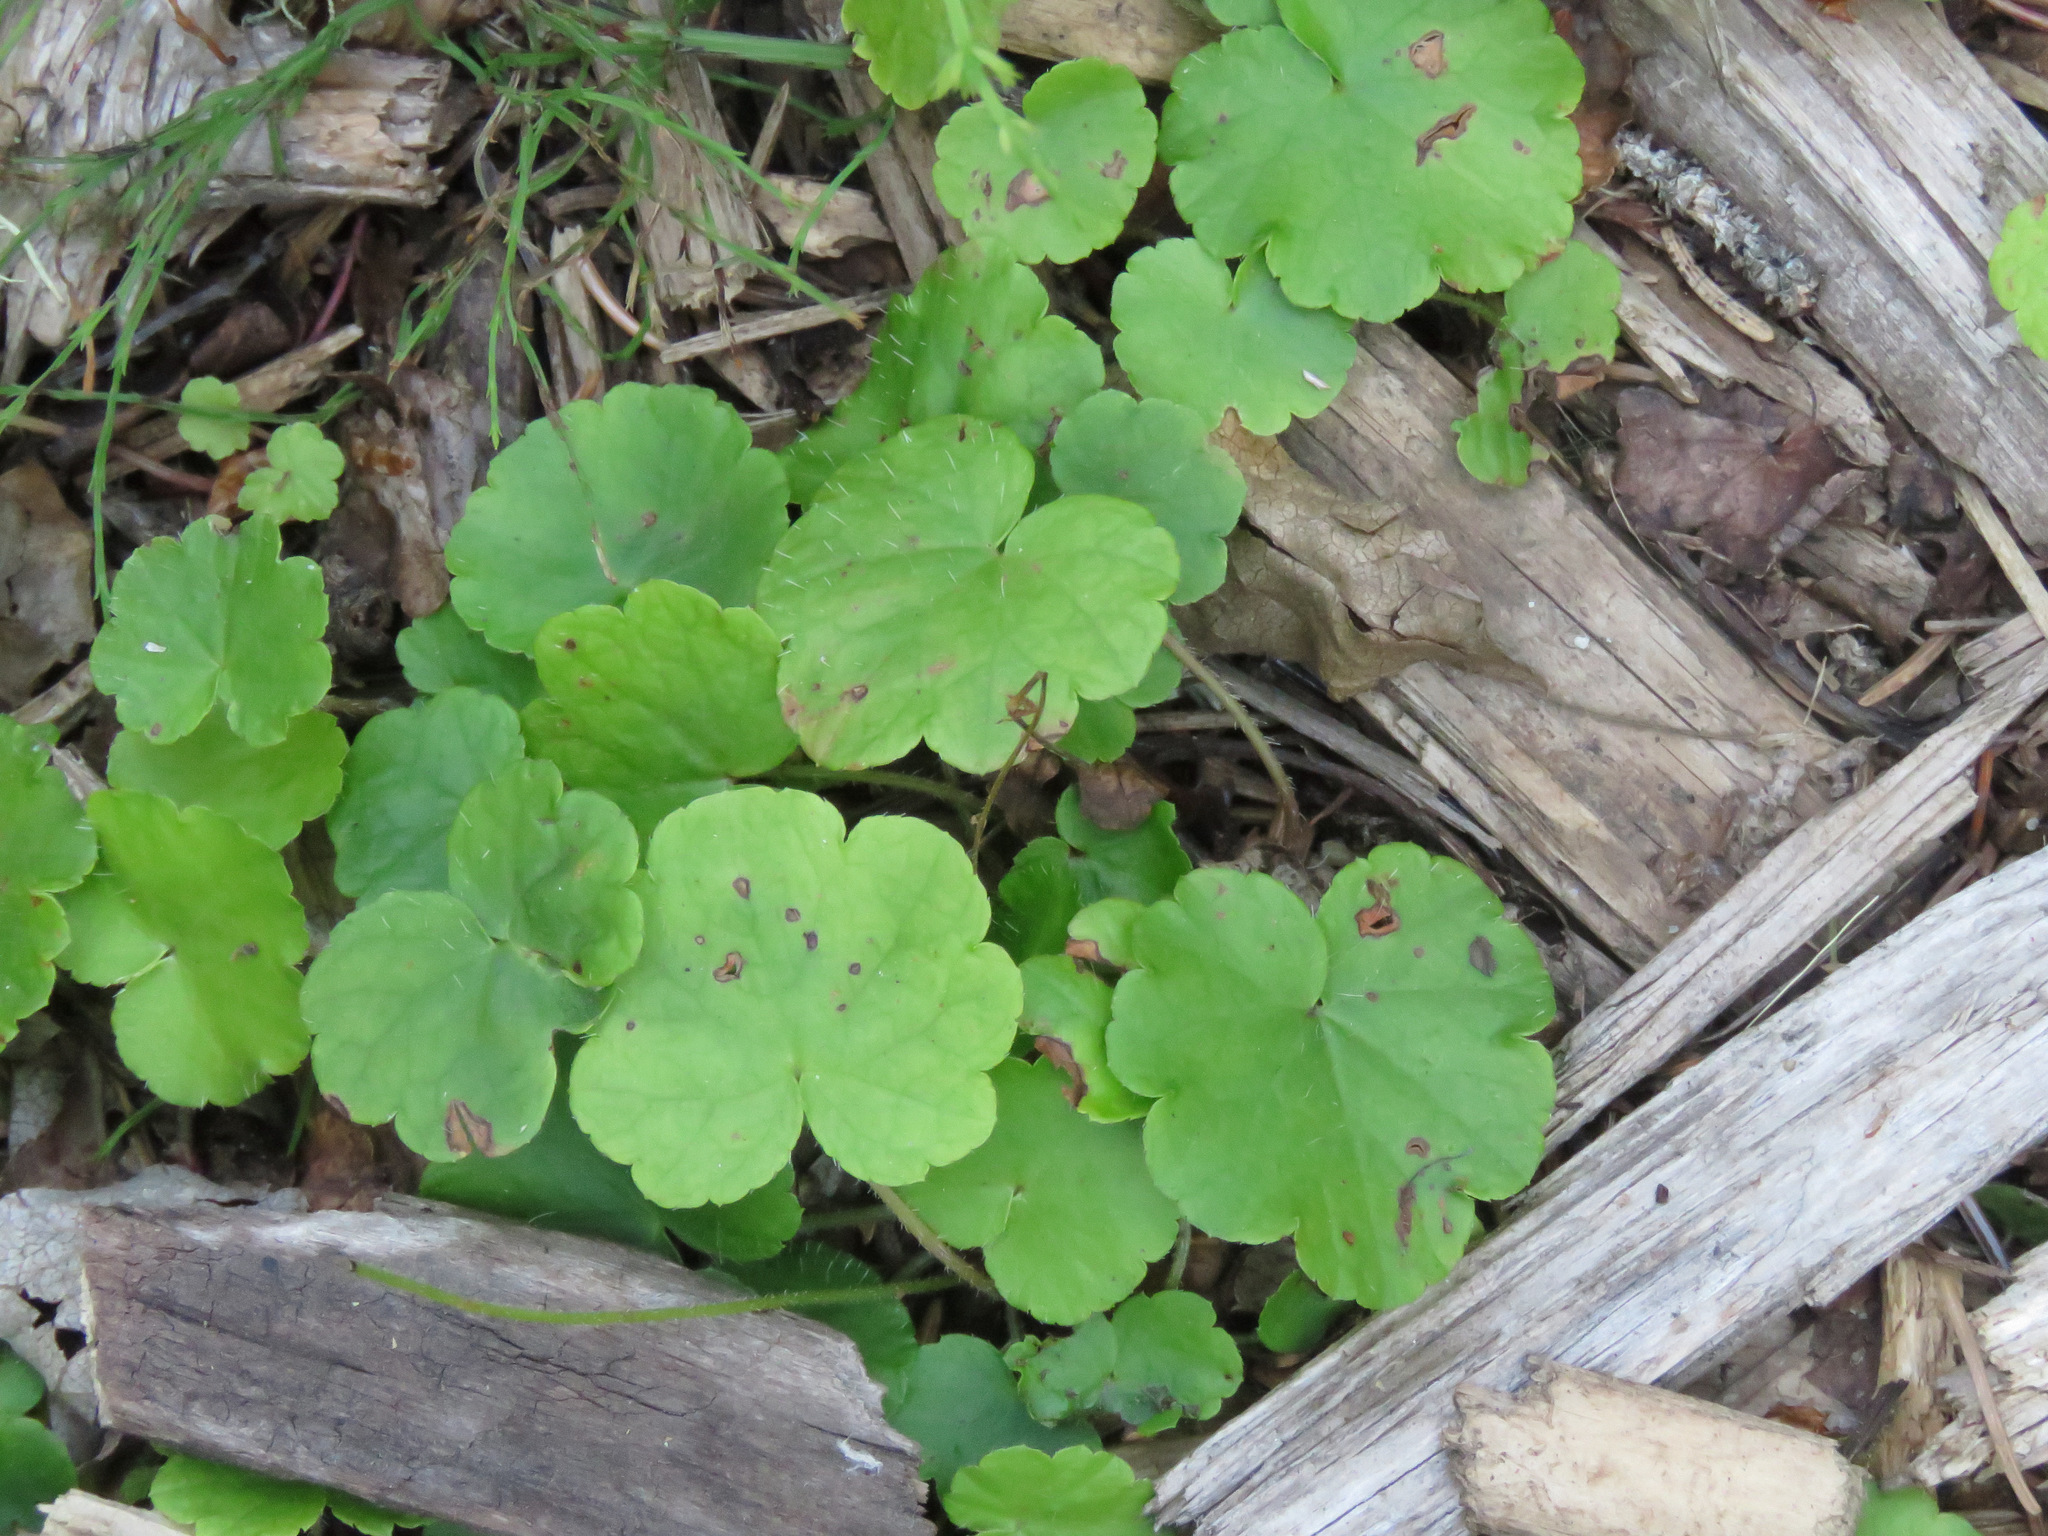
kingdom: Plantae
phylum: Tracheophyta
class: Magnoliopsida
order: Saxifragales
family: Saxifragaceae
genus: Mitella
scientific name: Mitella nuda
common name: Bare-stemmed bishop's-cap
